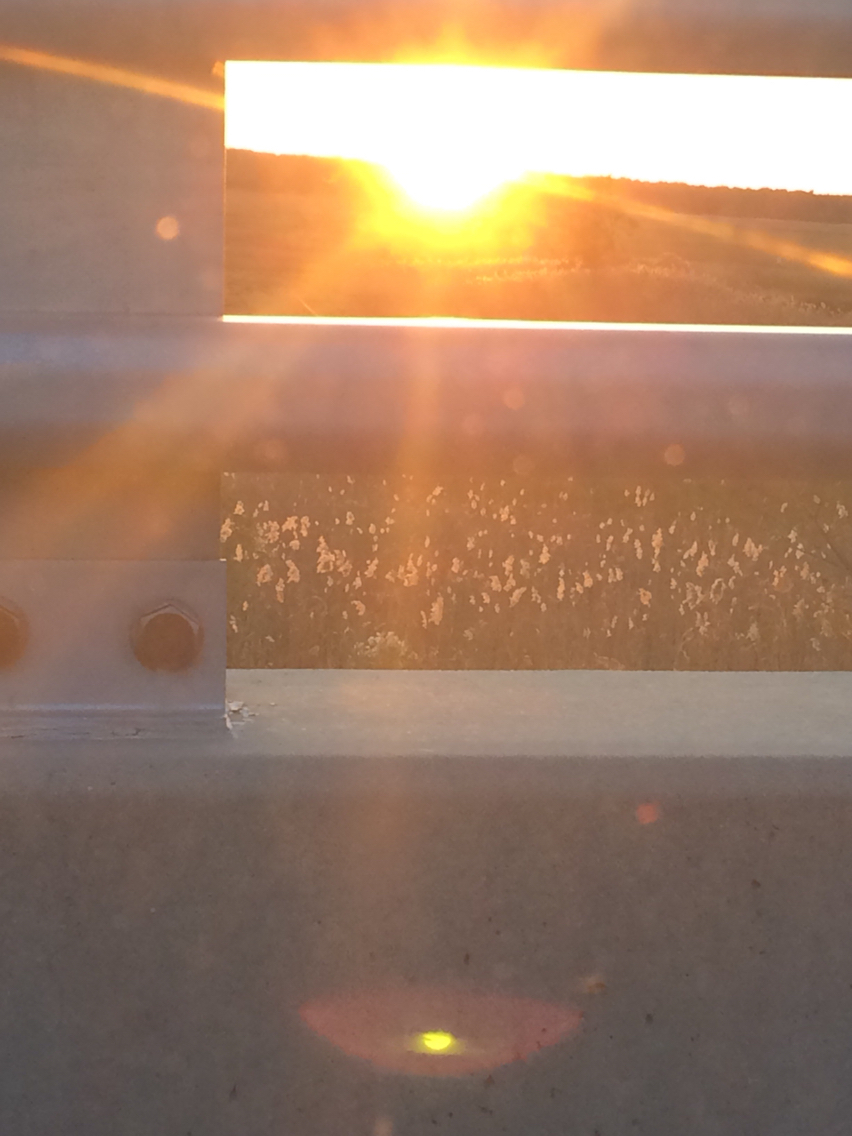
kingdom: Plantae
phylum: Tracheophyta
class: Liliopsida
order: Poales
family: Poaceae
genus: Phragmites
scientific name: Phragmites australis
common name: Common reed
